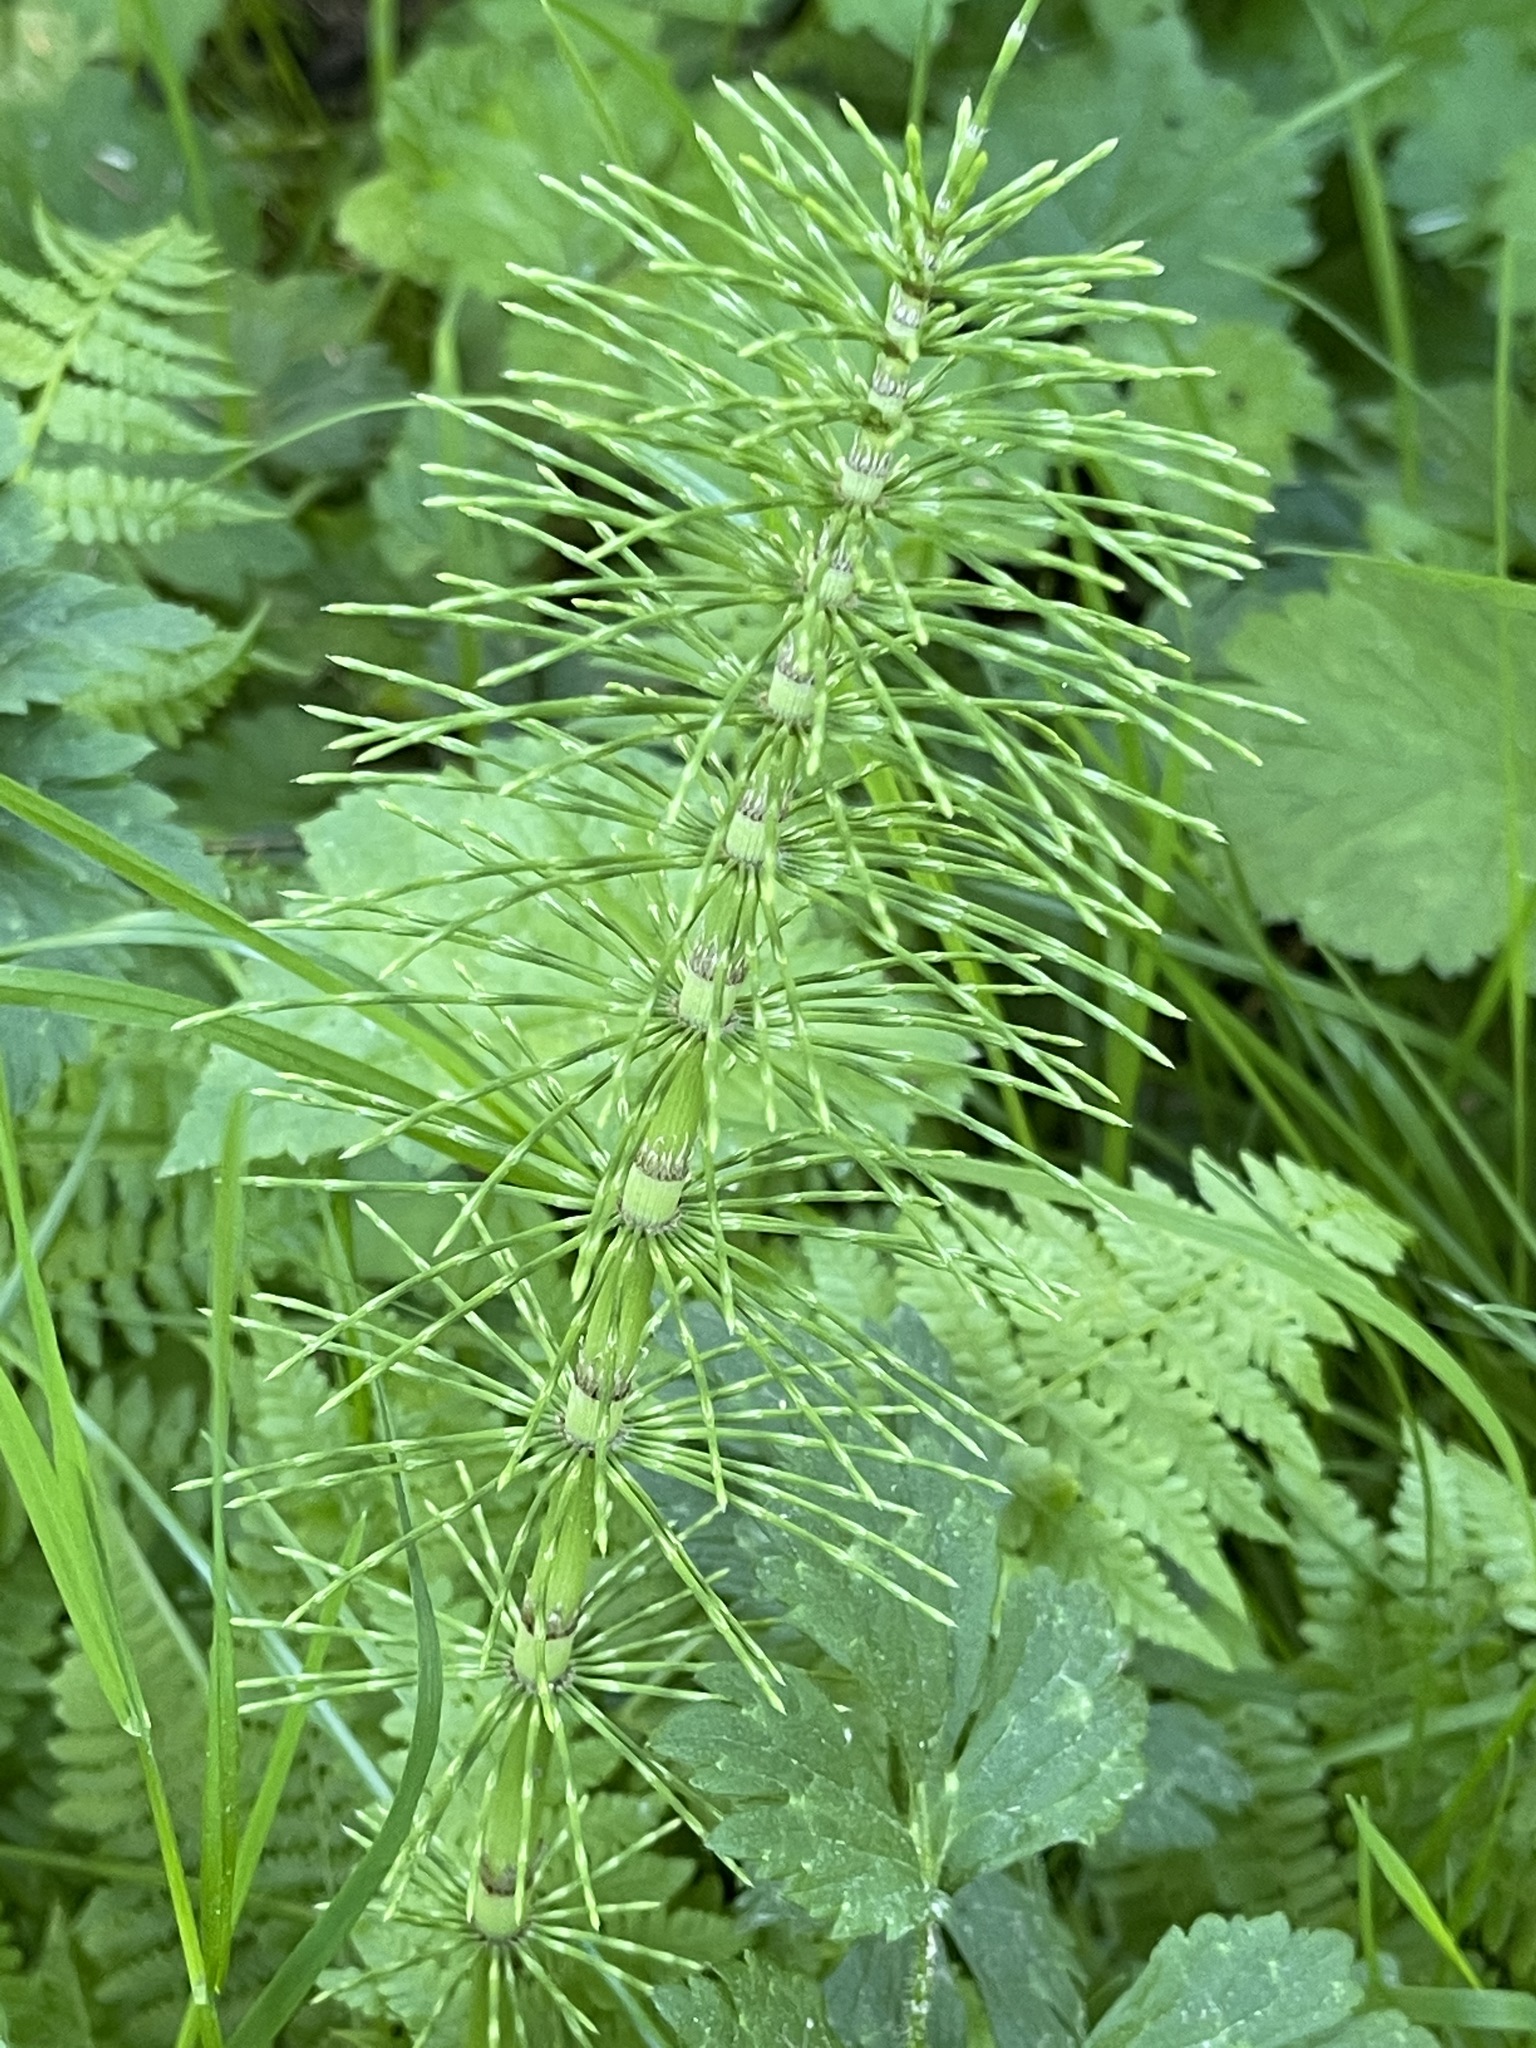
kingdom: Plantae
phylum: Tracheophyta
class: Polypodiopsida
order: Equisetales
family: Equisetaceae
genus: Equisetum
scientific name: Equisetum telmateia
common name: Great horsetail
